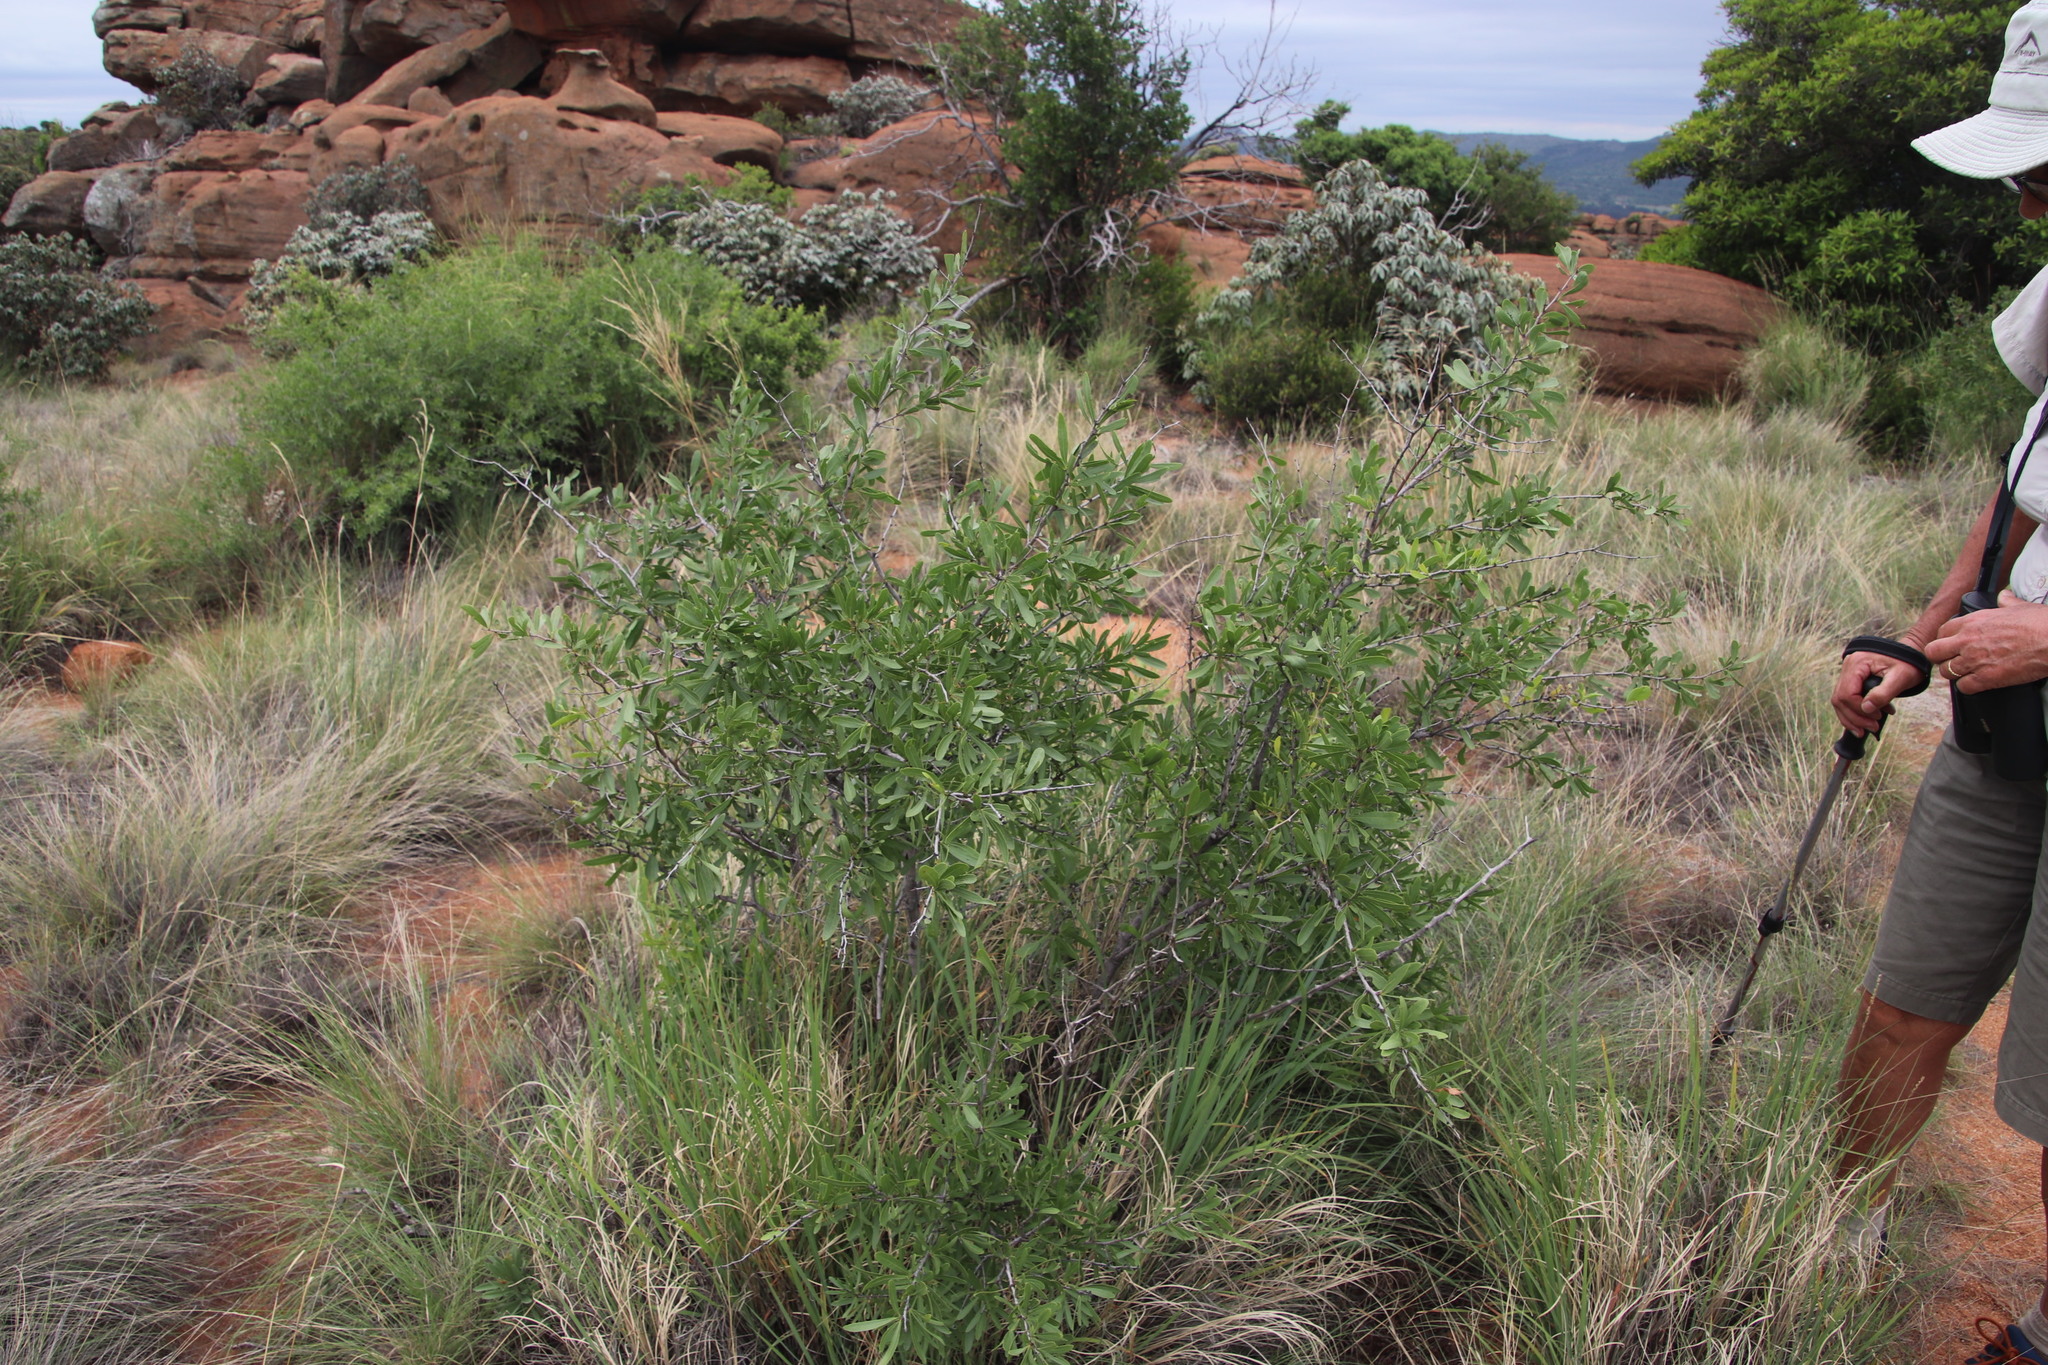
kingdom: Plantae
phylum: Tracheophyta
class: Magnoliopsida
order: Celastrales
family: Celastraceae
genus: Gymnosporia
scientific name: Gymnosporia tenuispina
